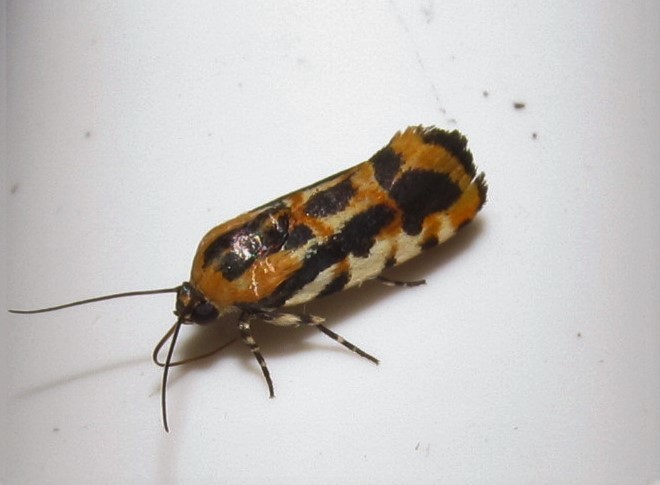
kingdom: Animalia
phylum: Arthropoda
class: Insecta
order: Lepidoptera
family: Noctuidae
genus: Acontia
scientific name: Acontia leo
